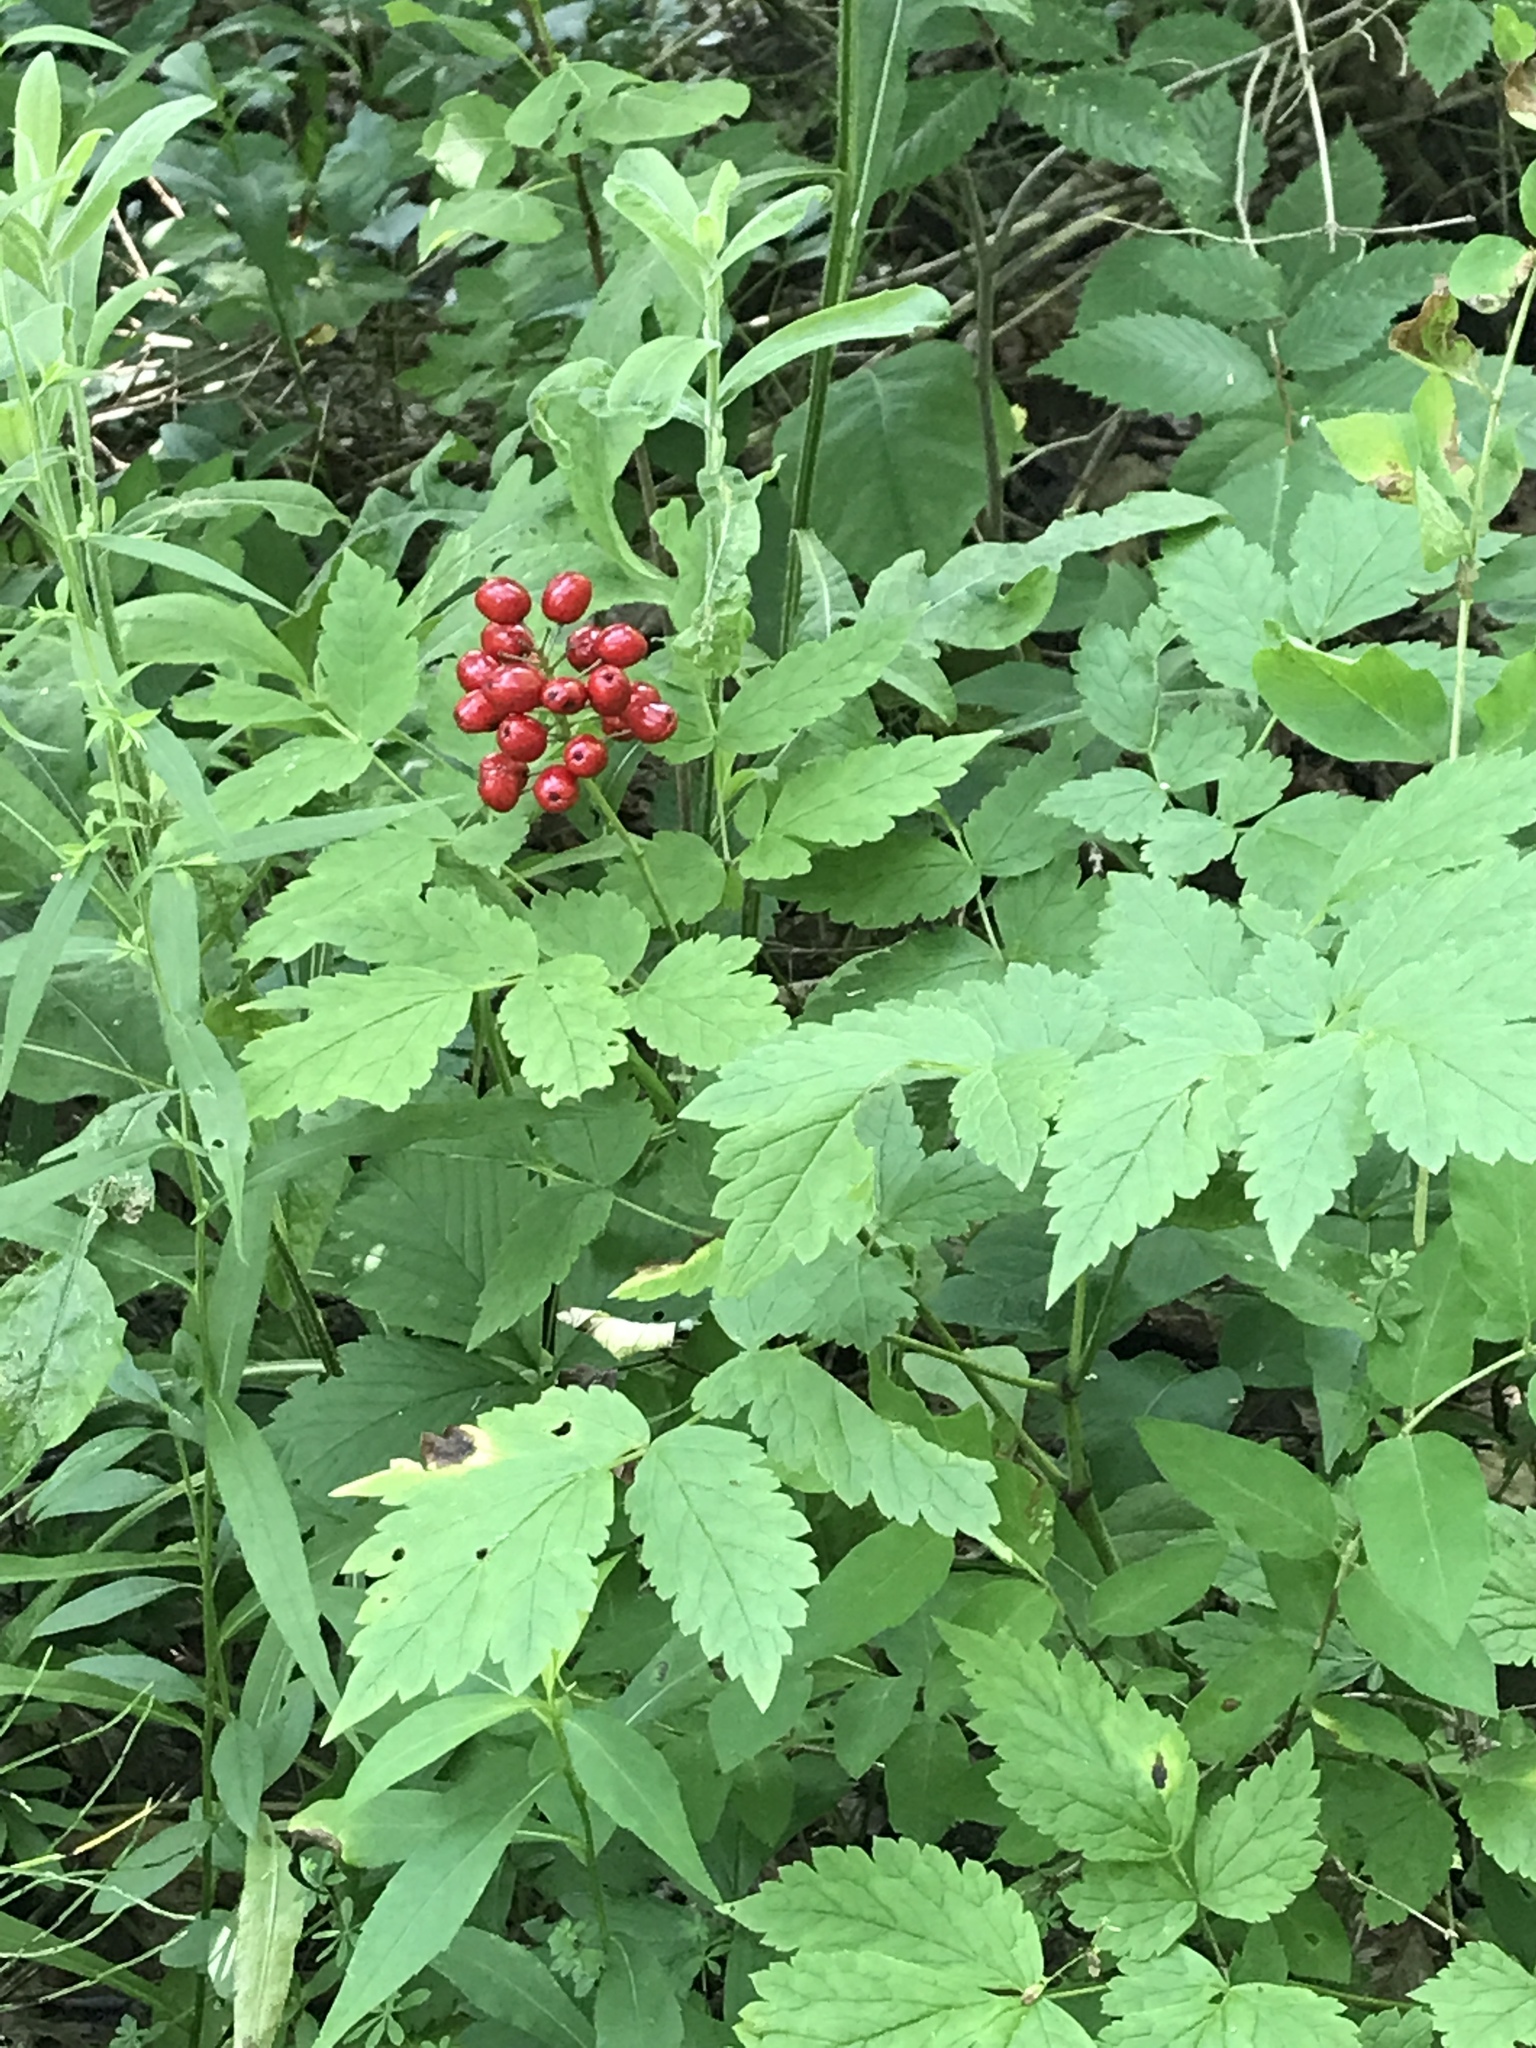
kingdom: Plantae
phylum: Tracheophyta
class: Magnoliopsida
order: Ranunculales
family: Ranunculaceae
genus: Actaea
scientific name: Actaea rubra
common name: Red baneberry
